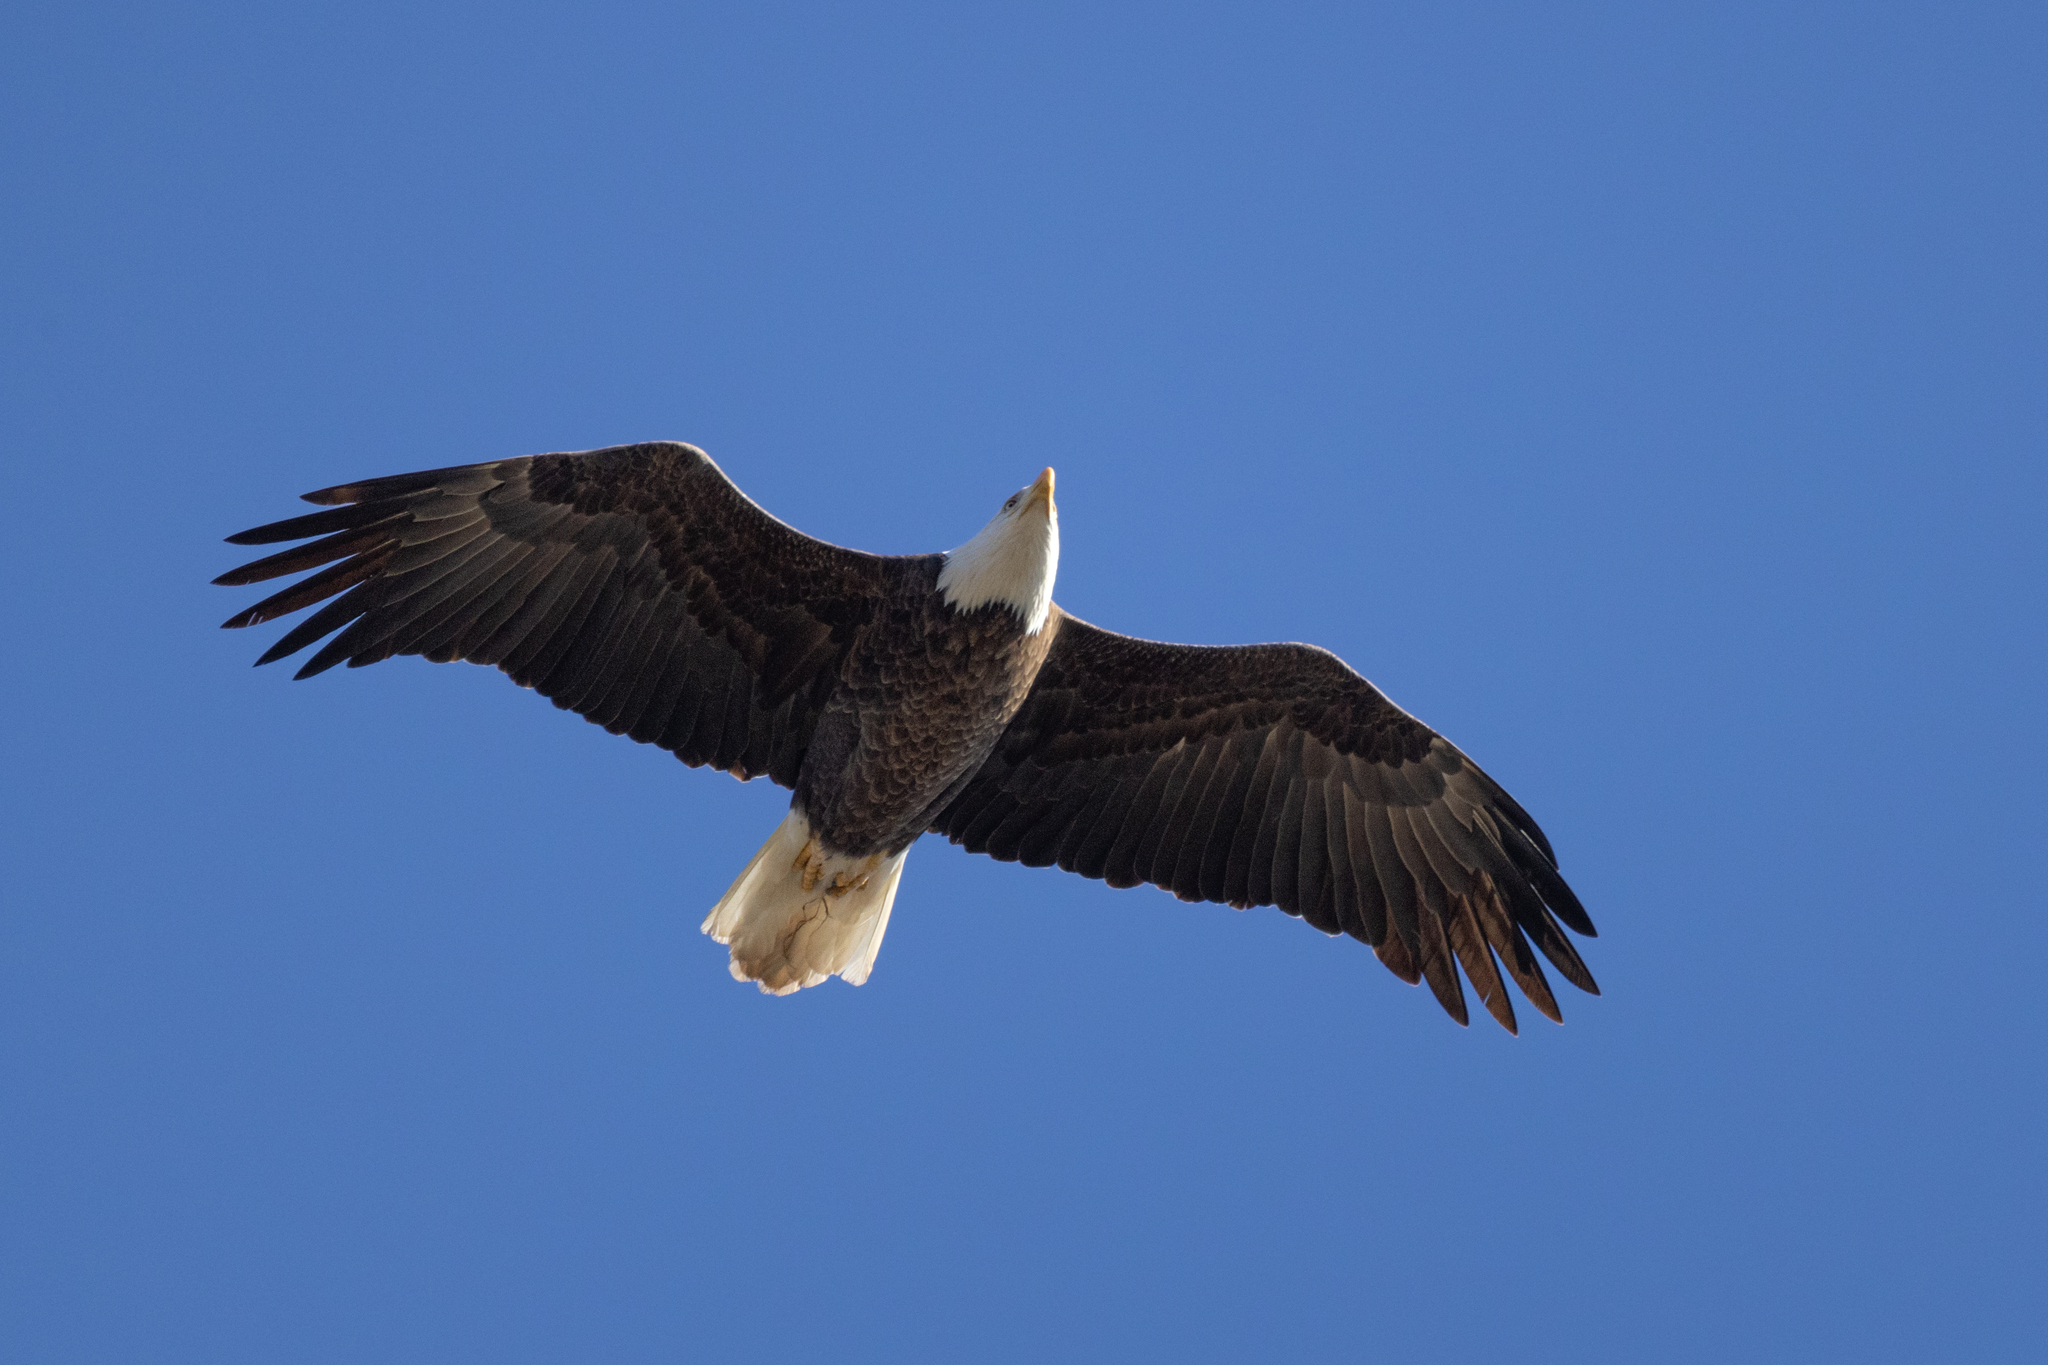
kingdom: Animalia
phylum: Chordata
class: Aves
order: Accipitriformes
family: Accipitridae
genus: Haliaeetus
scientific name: Haliaeetus leucocephalus
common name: Bald eagle
